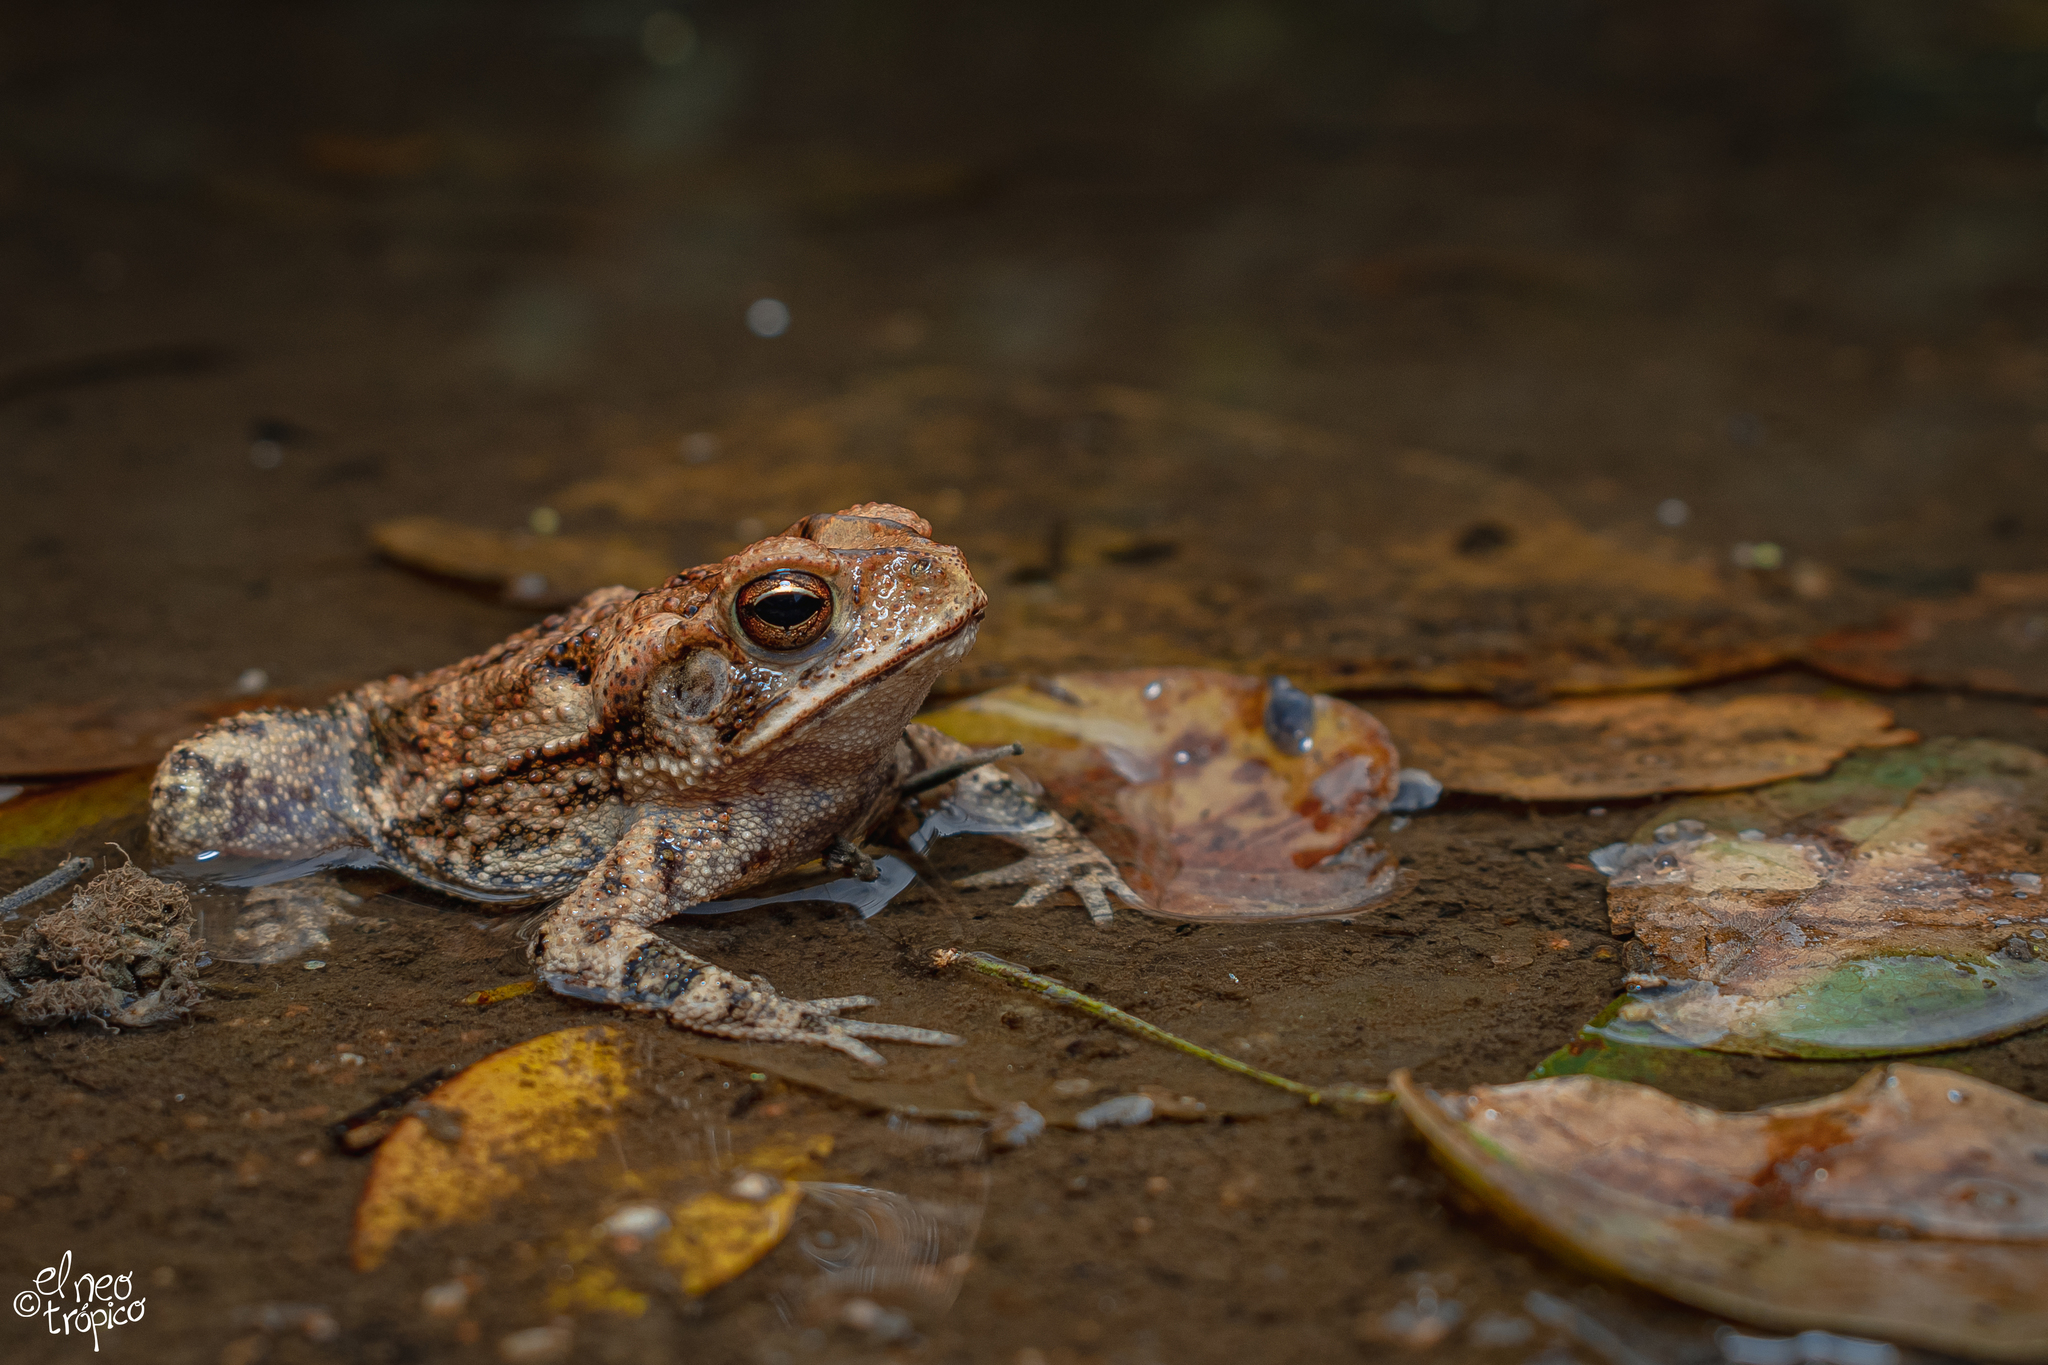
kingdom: Animalia
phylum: Chordata
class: Amphibia
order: Anura
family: Bufonidae
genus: Incilius
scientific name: Incilius valliceps
